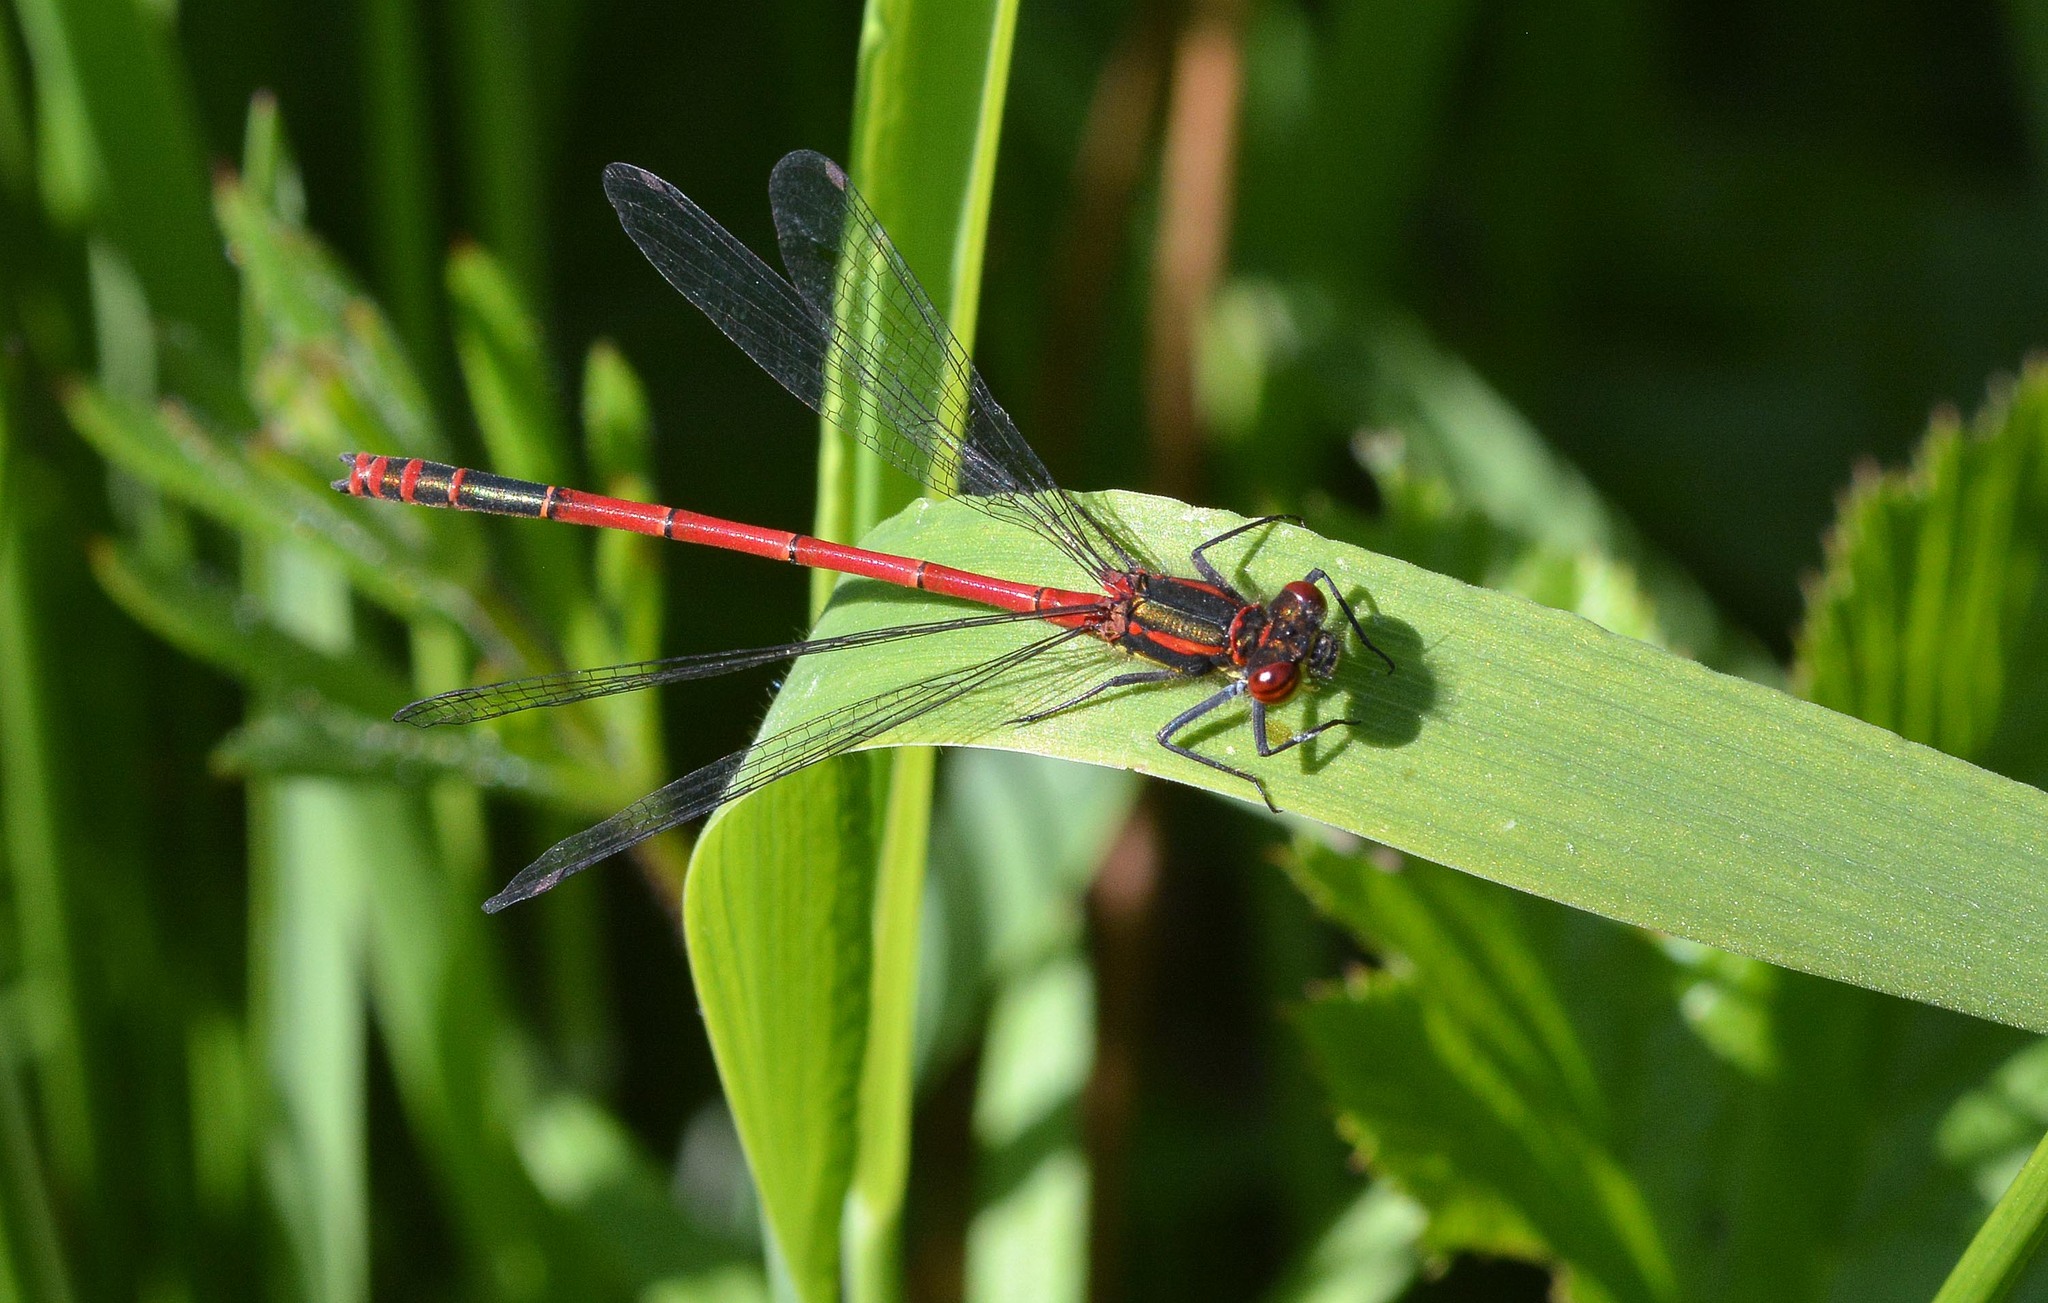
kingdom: Animalia
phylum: Arthropoda
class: Insecta
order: Odonata
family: Coenagrionidae
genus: Pyrrhosoma
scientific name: Pyrrhosoma nymphula
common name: Large red damsel
